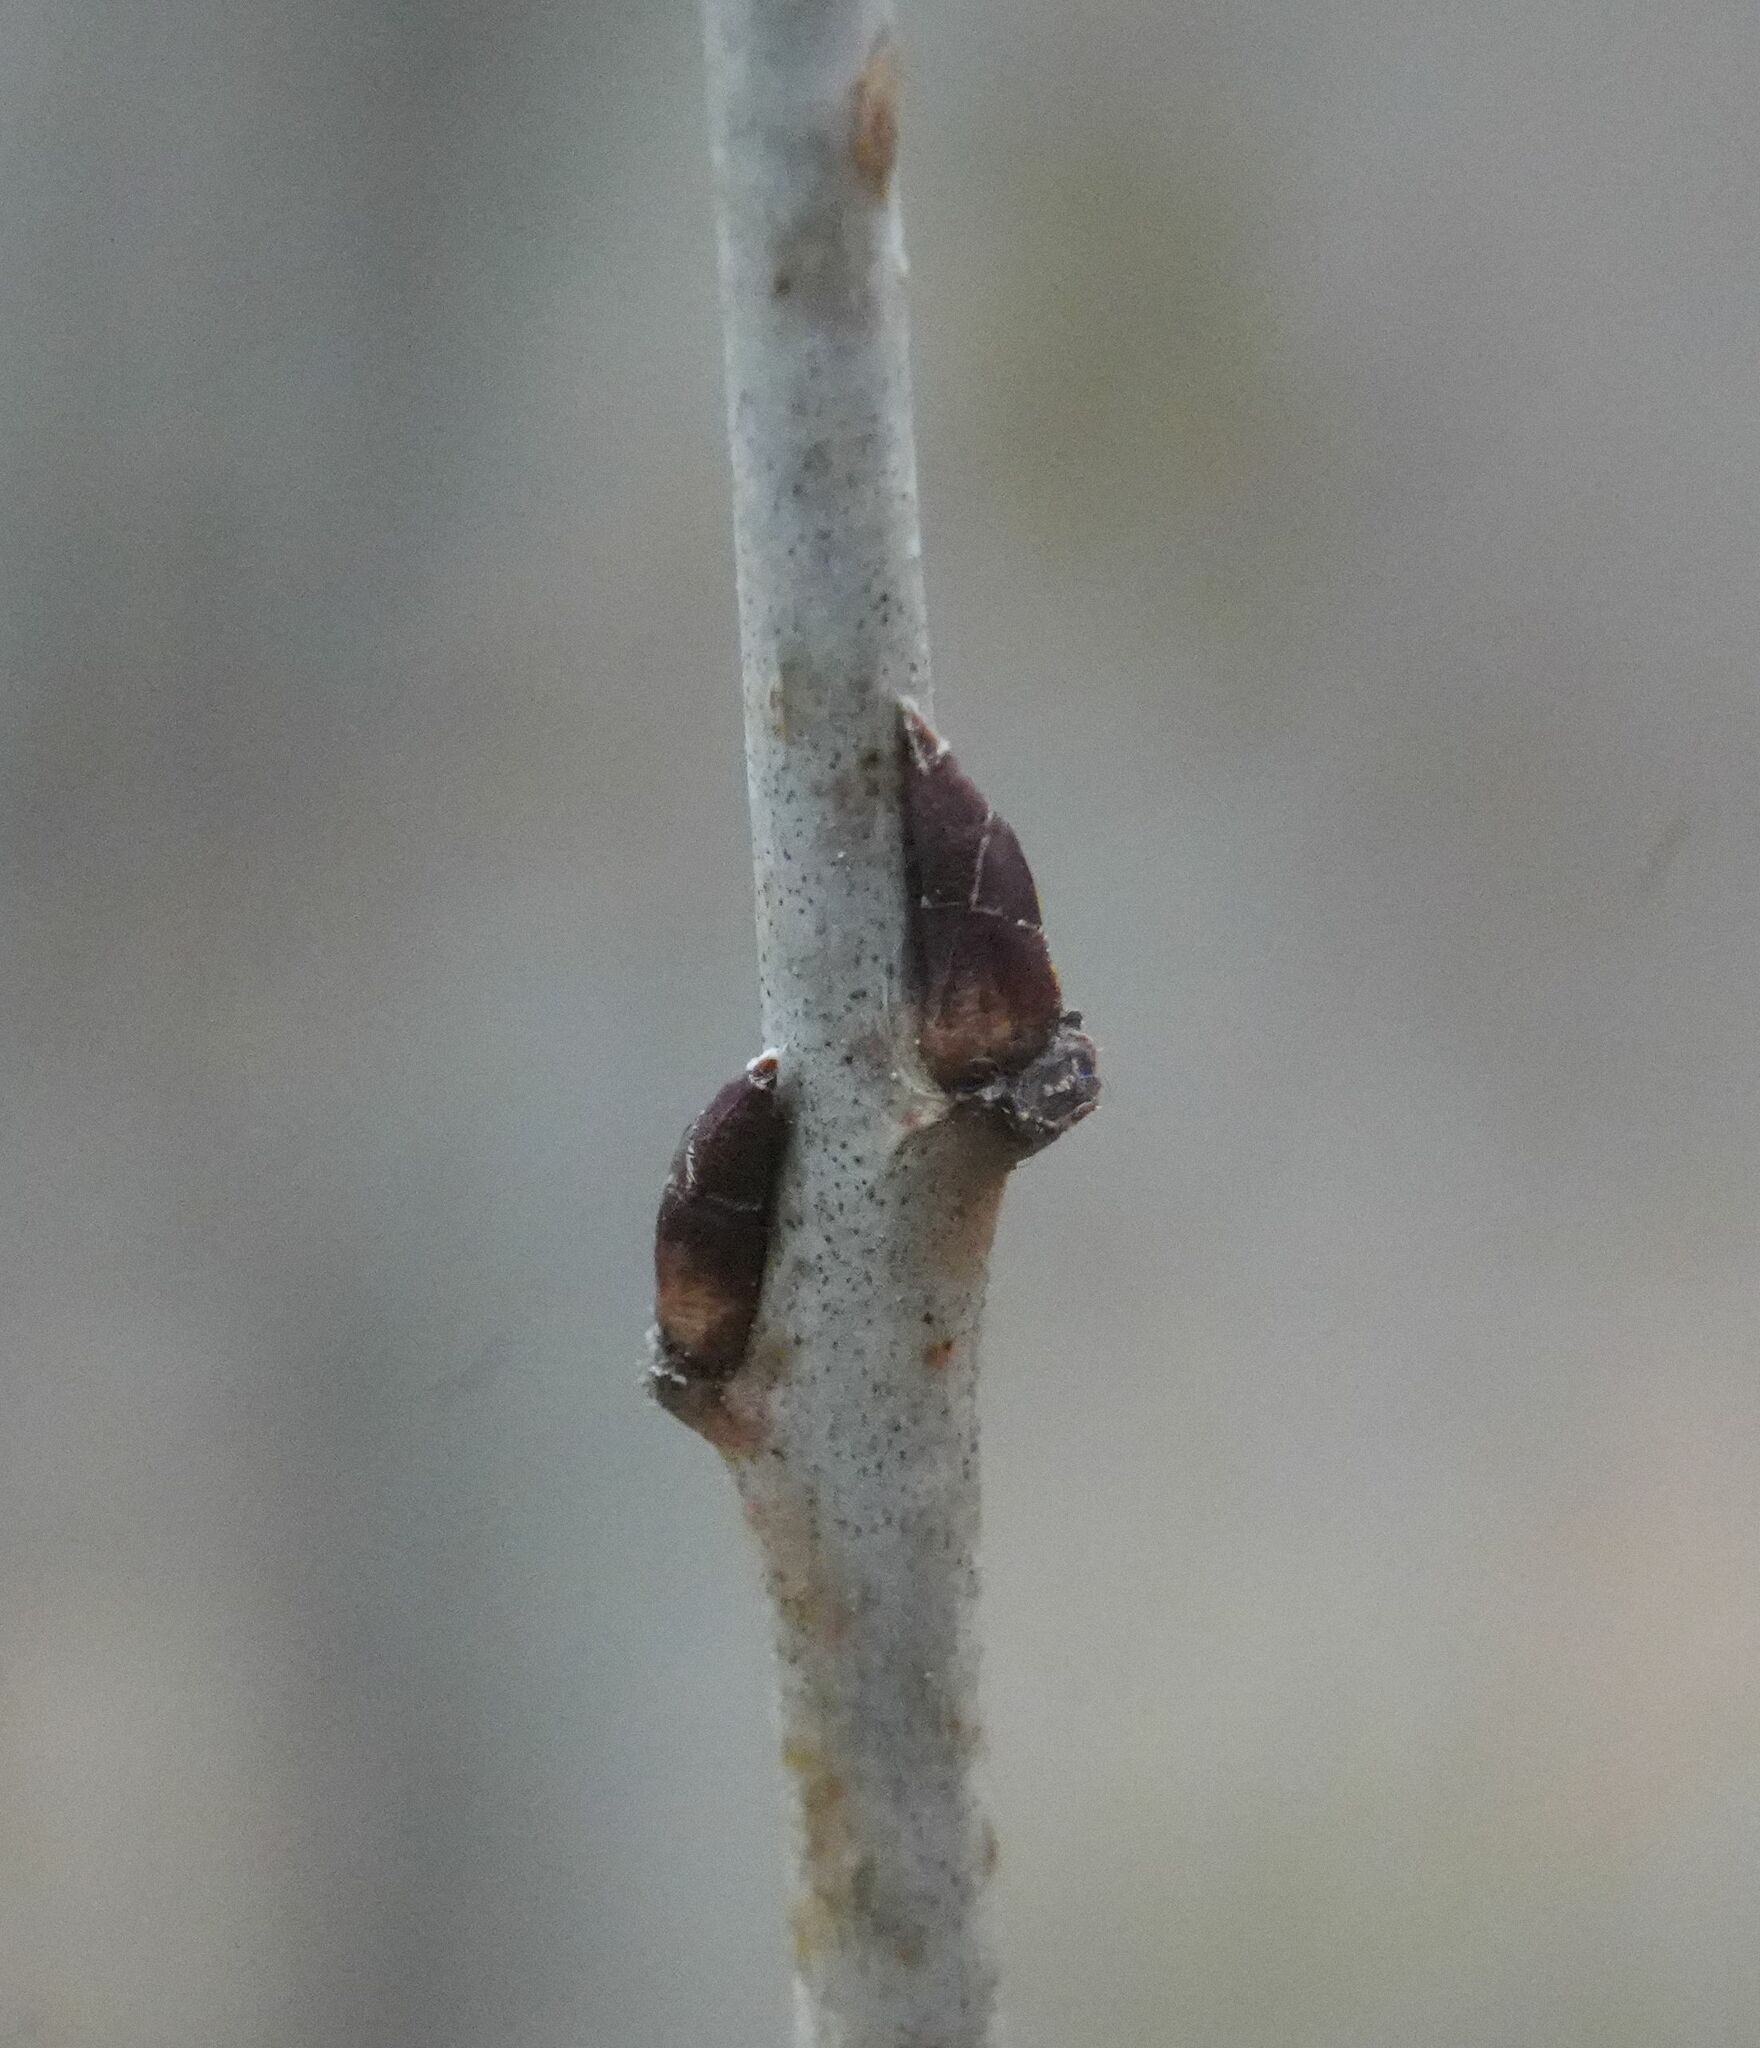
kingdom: Plantae
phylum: Tracheophyta
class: Magnoliopsida
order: Rosales
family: Rhamnaceae
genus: Rhamnus
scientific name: Rhamnus cathartica
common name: Common buckthorn
